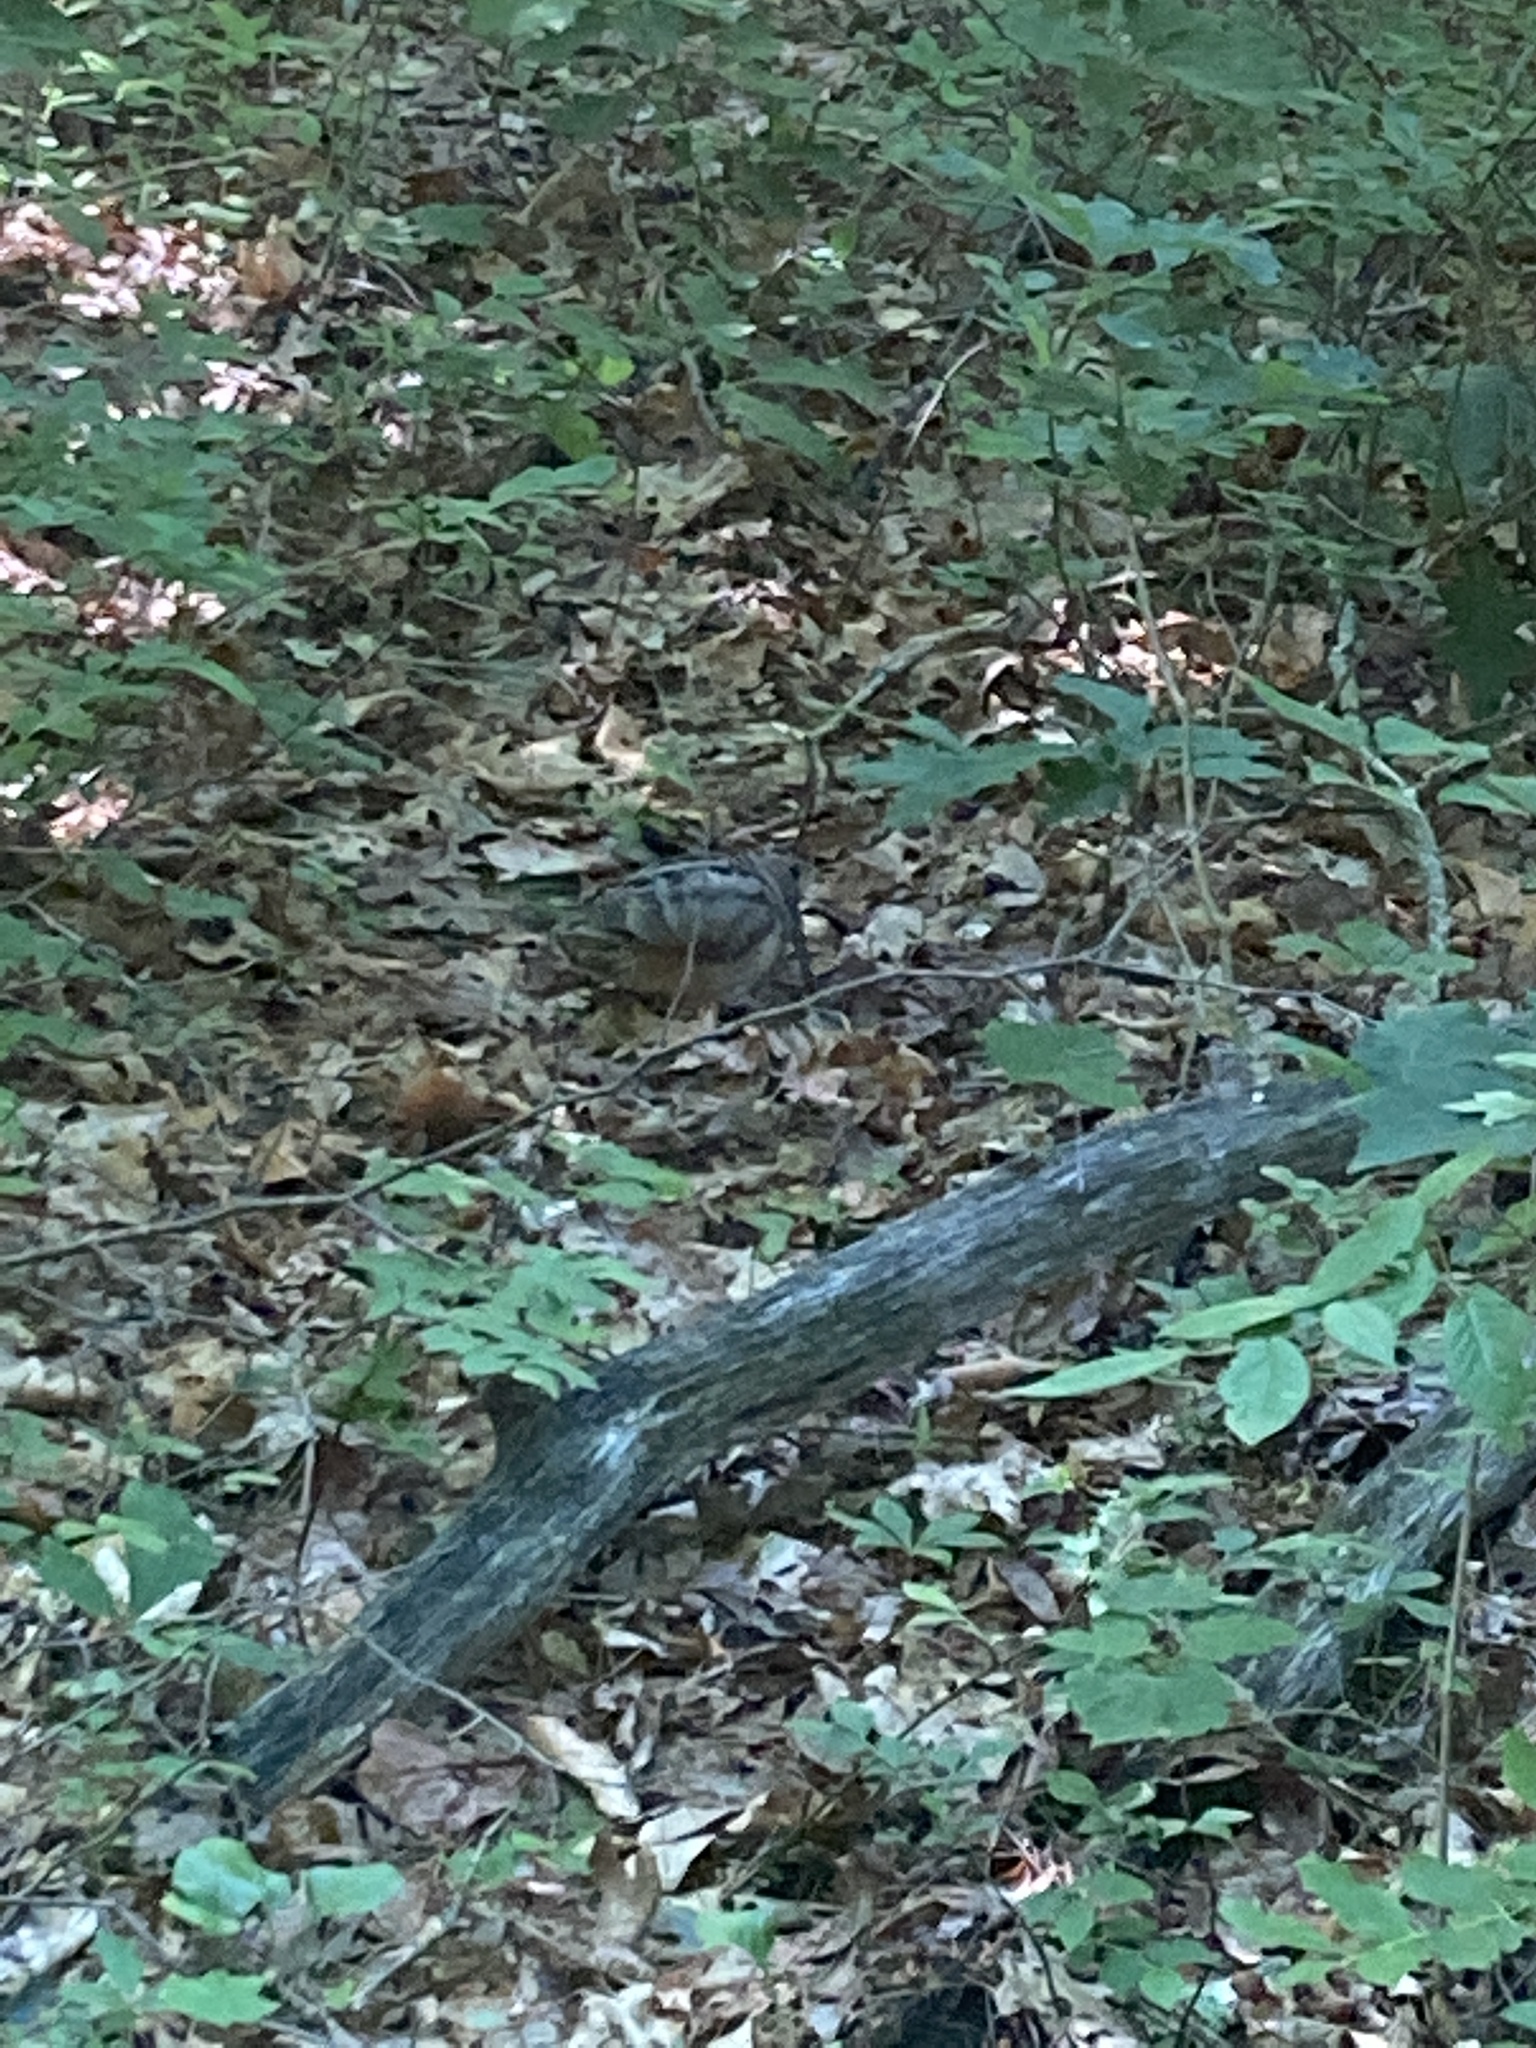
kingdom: Animalia
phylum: Chordata
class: Aves
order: Charadriiformes
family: Scolopacidae
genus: Scolopax
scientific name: Scolopax minor
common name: American woodcock
